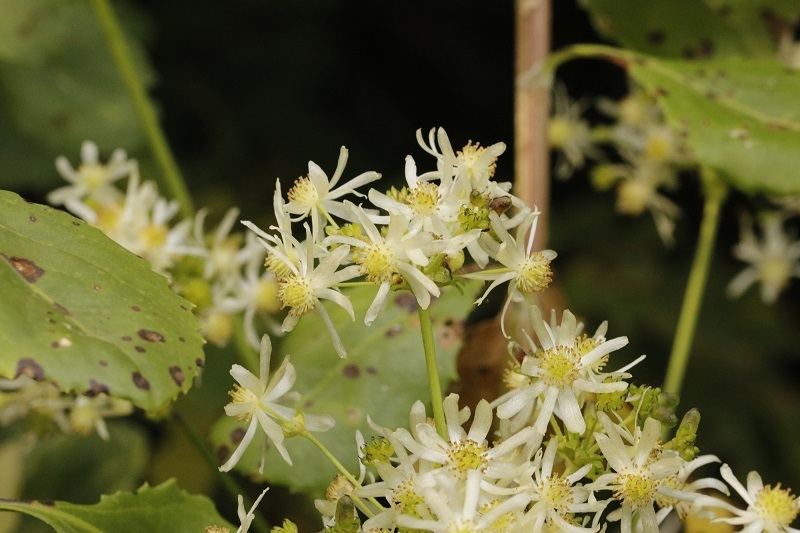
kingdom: Plantae
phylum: Tracheophyta
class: Magnoliopsida
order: Ranunculales
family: Ranunculaceae
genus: Knowltonia
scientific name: Knowltonia vesicatoria
